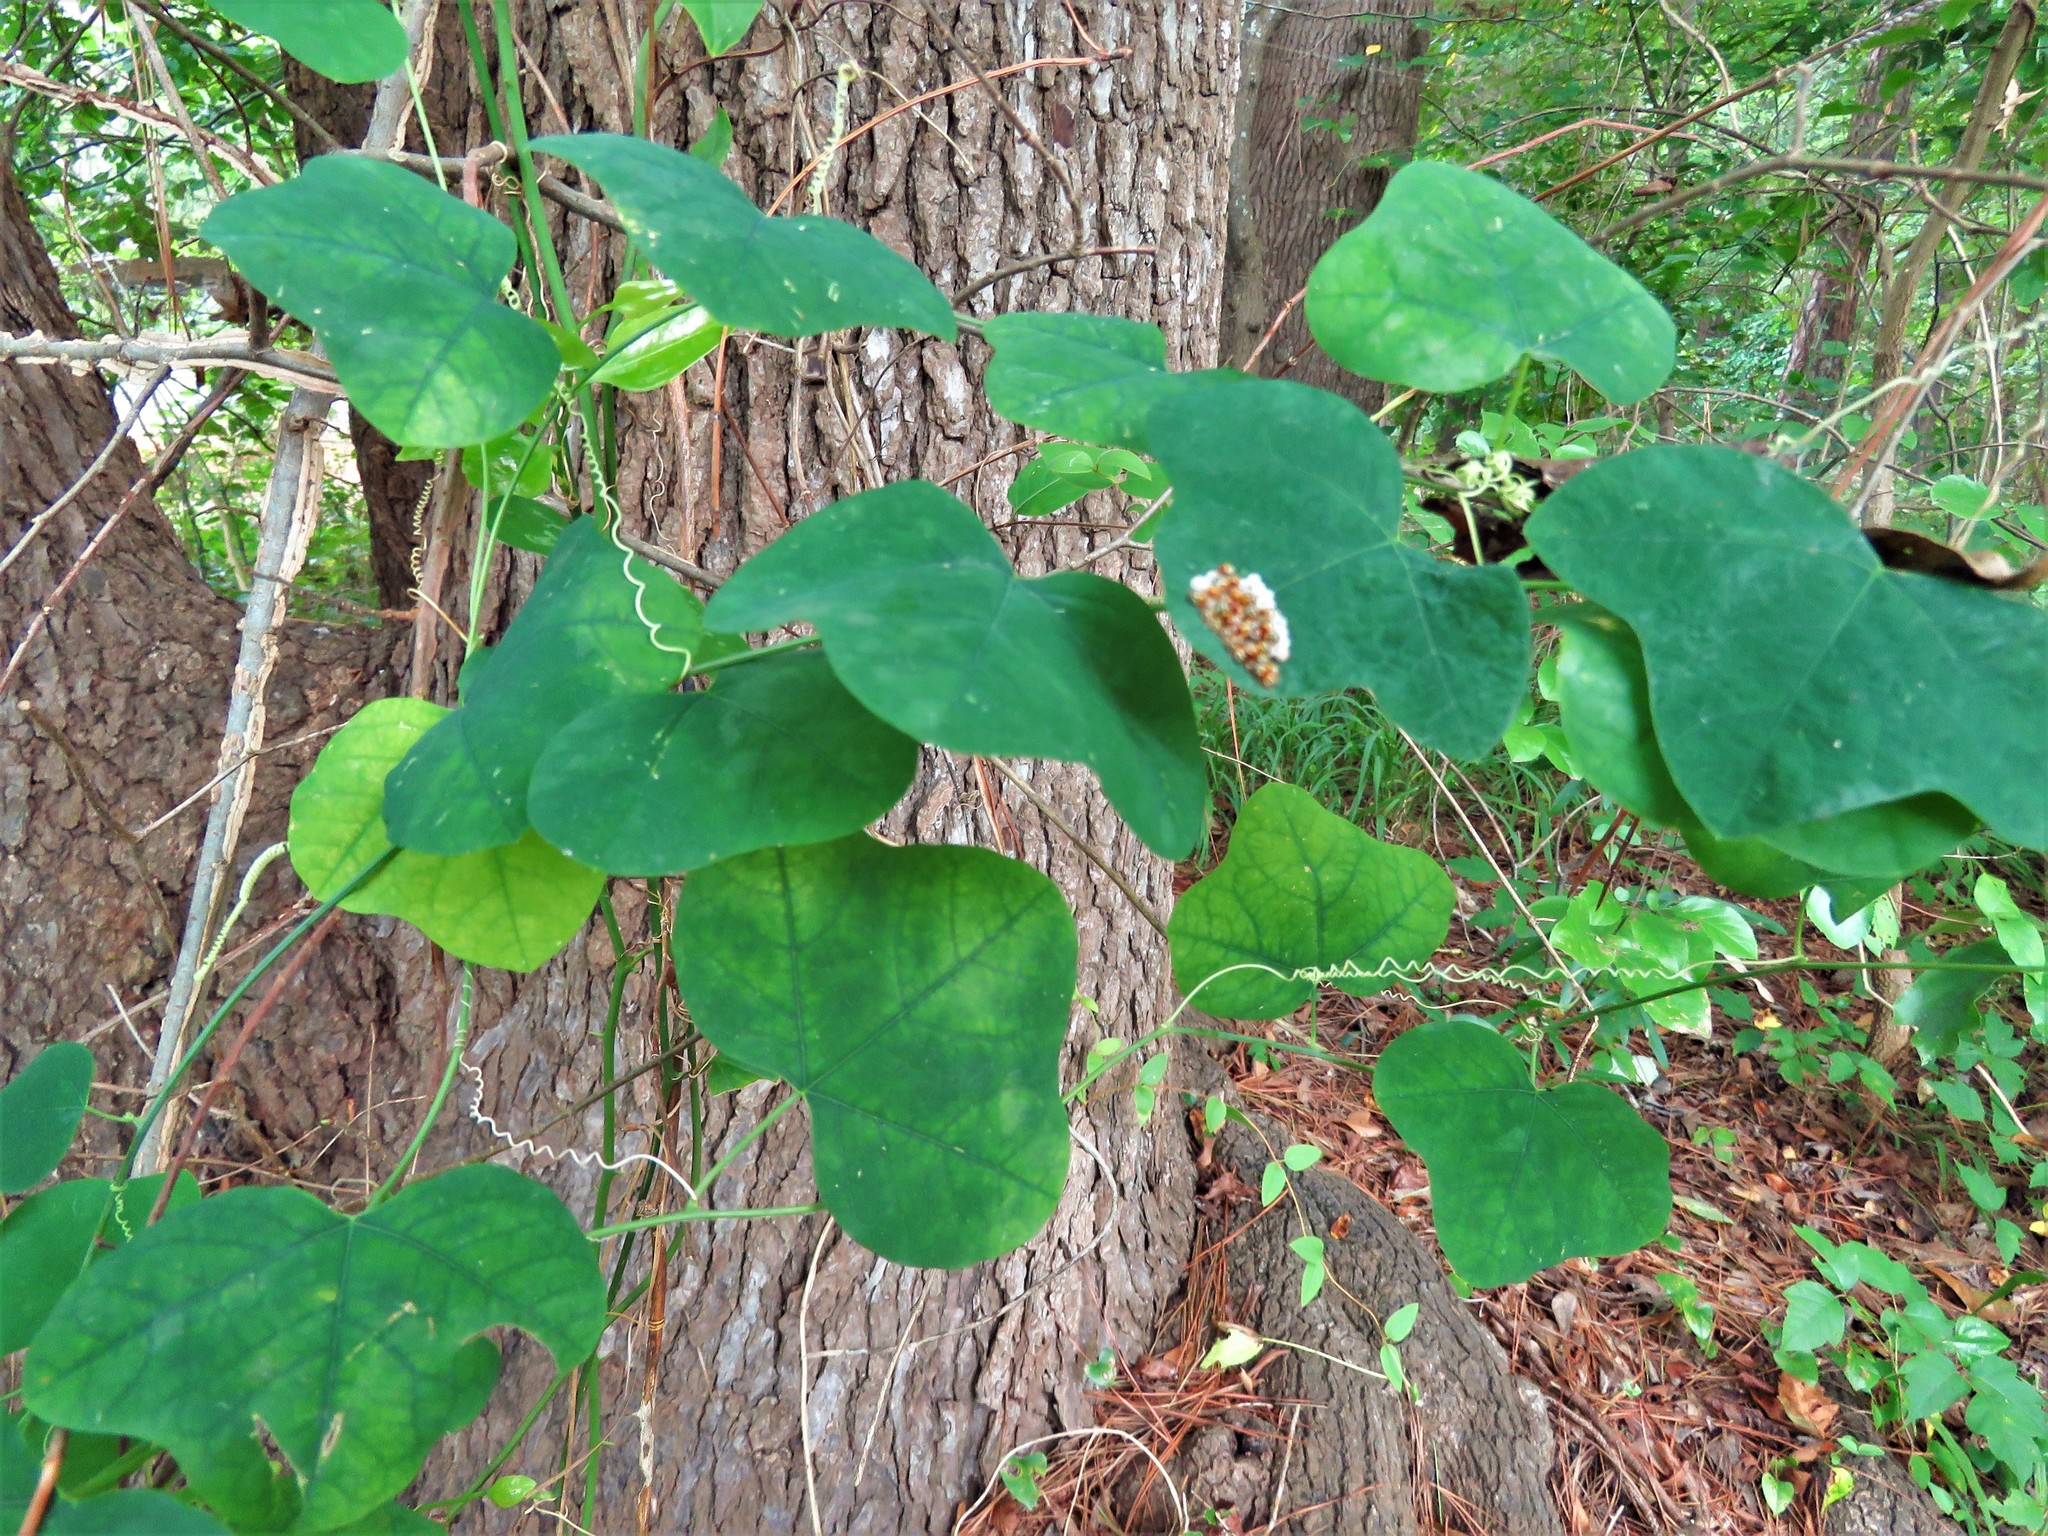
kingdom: Plantae
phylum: Tracheophyta
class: Magnoliopsida
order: Malpighiales
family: Passifloraceae
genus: Passiflora
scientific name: Passiflora lutea
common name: Yellow passionflower
